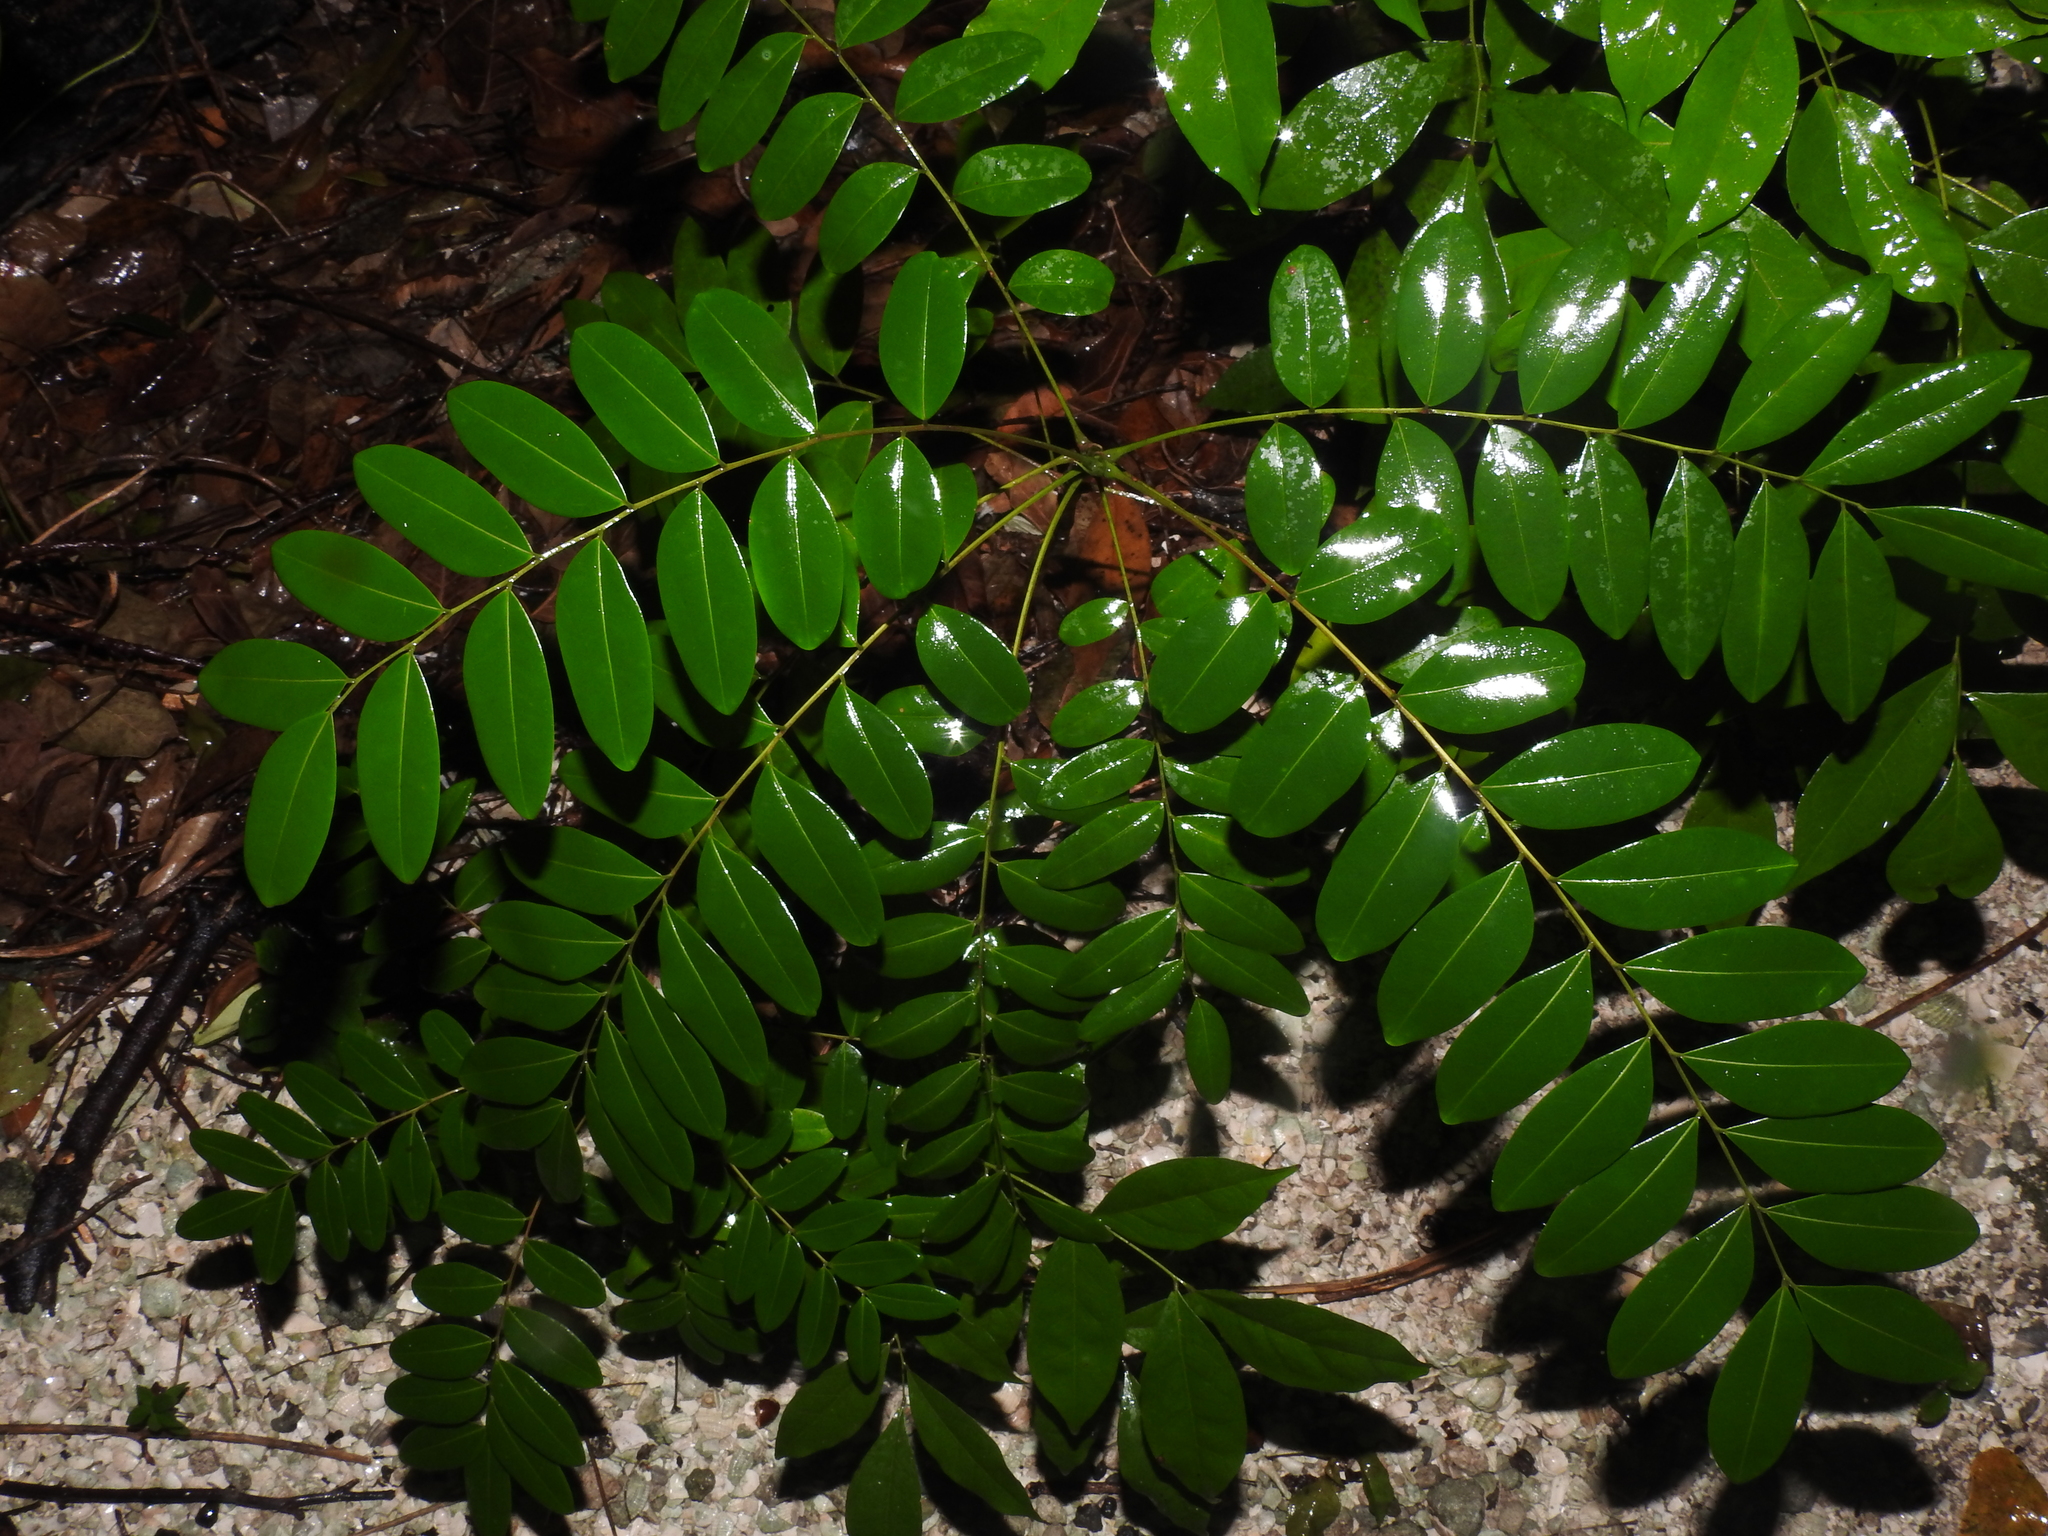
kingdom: Plantae
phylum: Tracheophyta
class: Magnoliopsida
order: Sapindales
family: Simaroubaceae
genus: Simarouba
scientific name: Simarouba glauca
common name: Dysentery-bark
